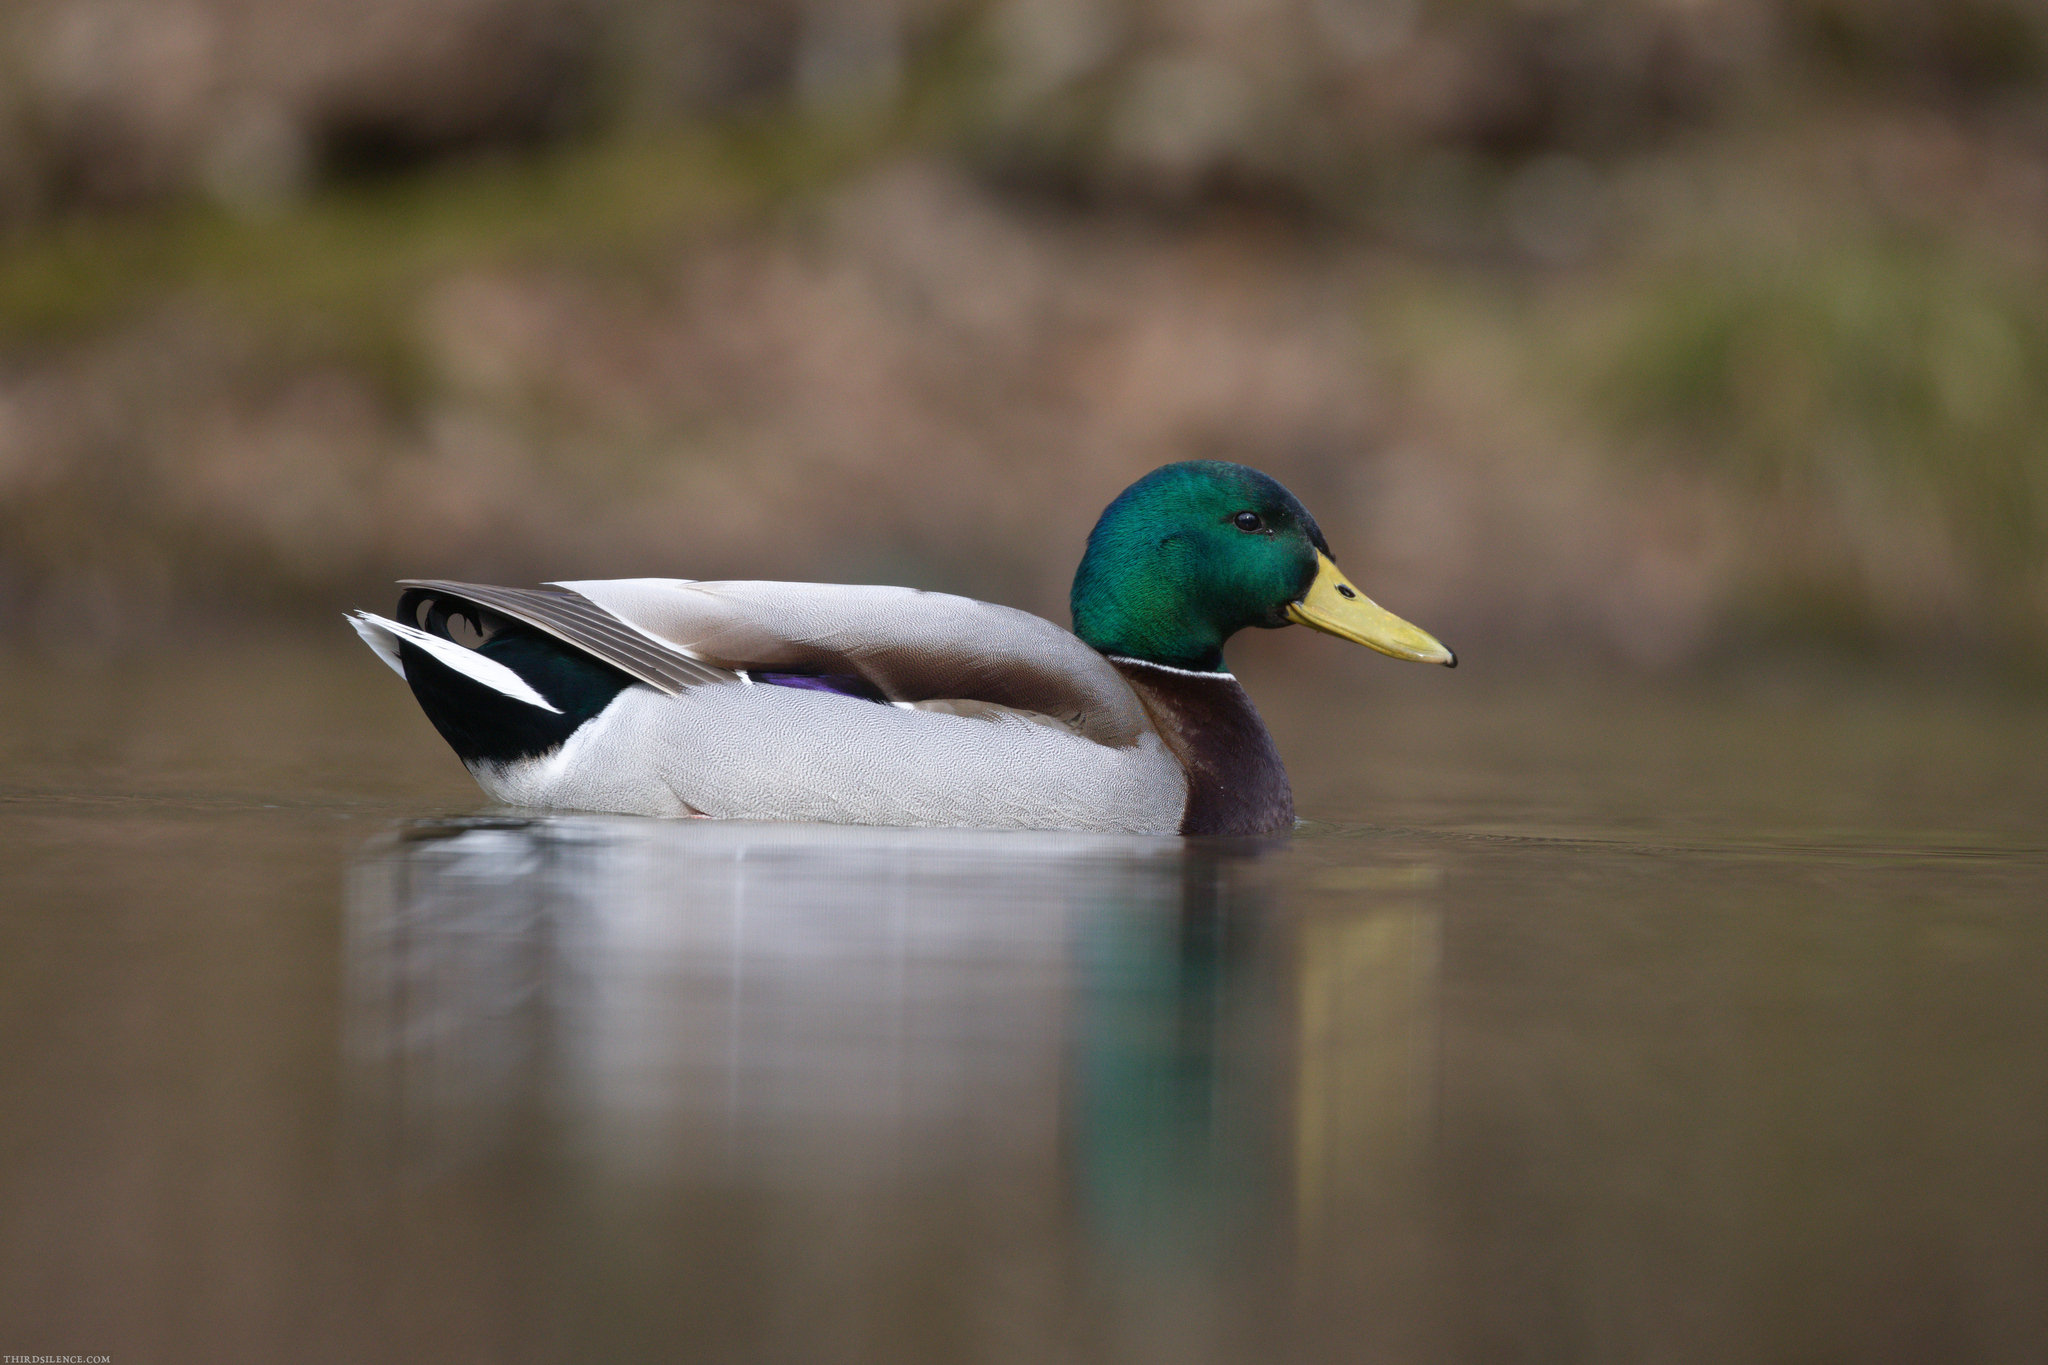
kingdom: Animalia
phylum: Chordata
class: Aves
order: Anseriformes
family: Anatidae
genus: Anas
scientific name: Anas platyrhynchos
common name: Mallard
